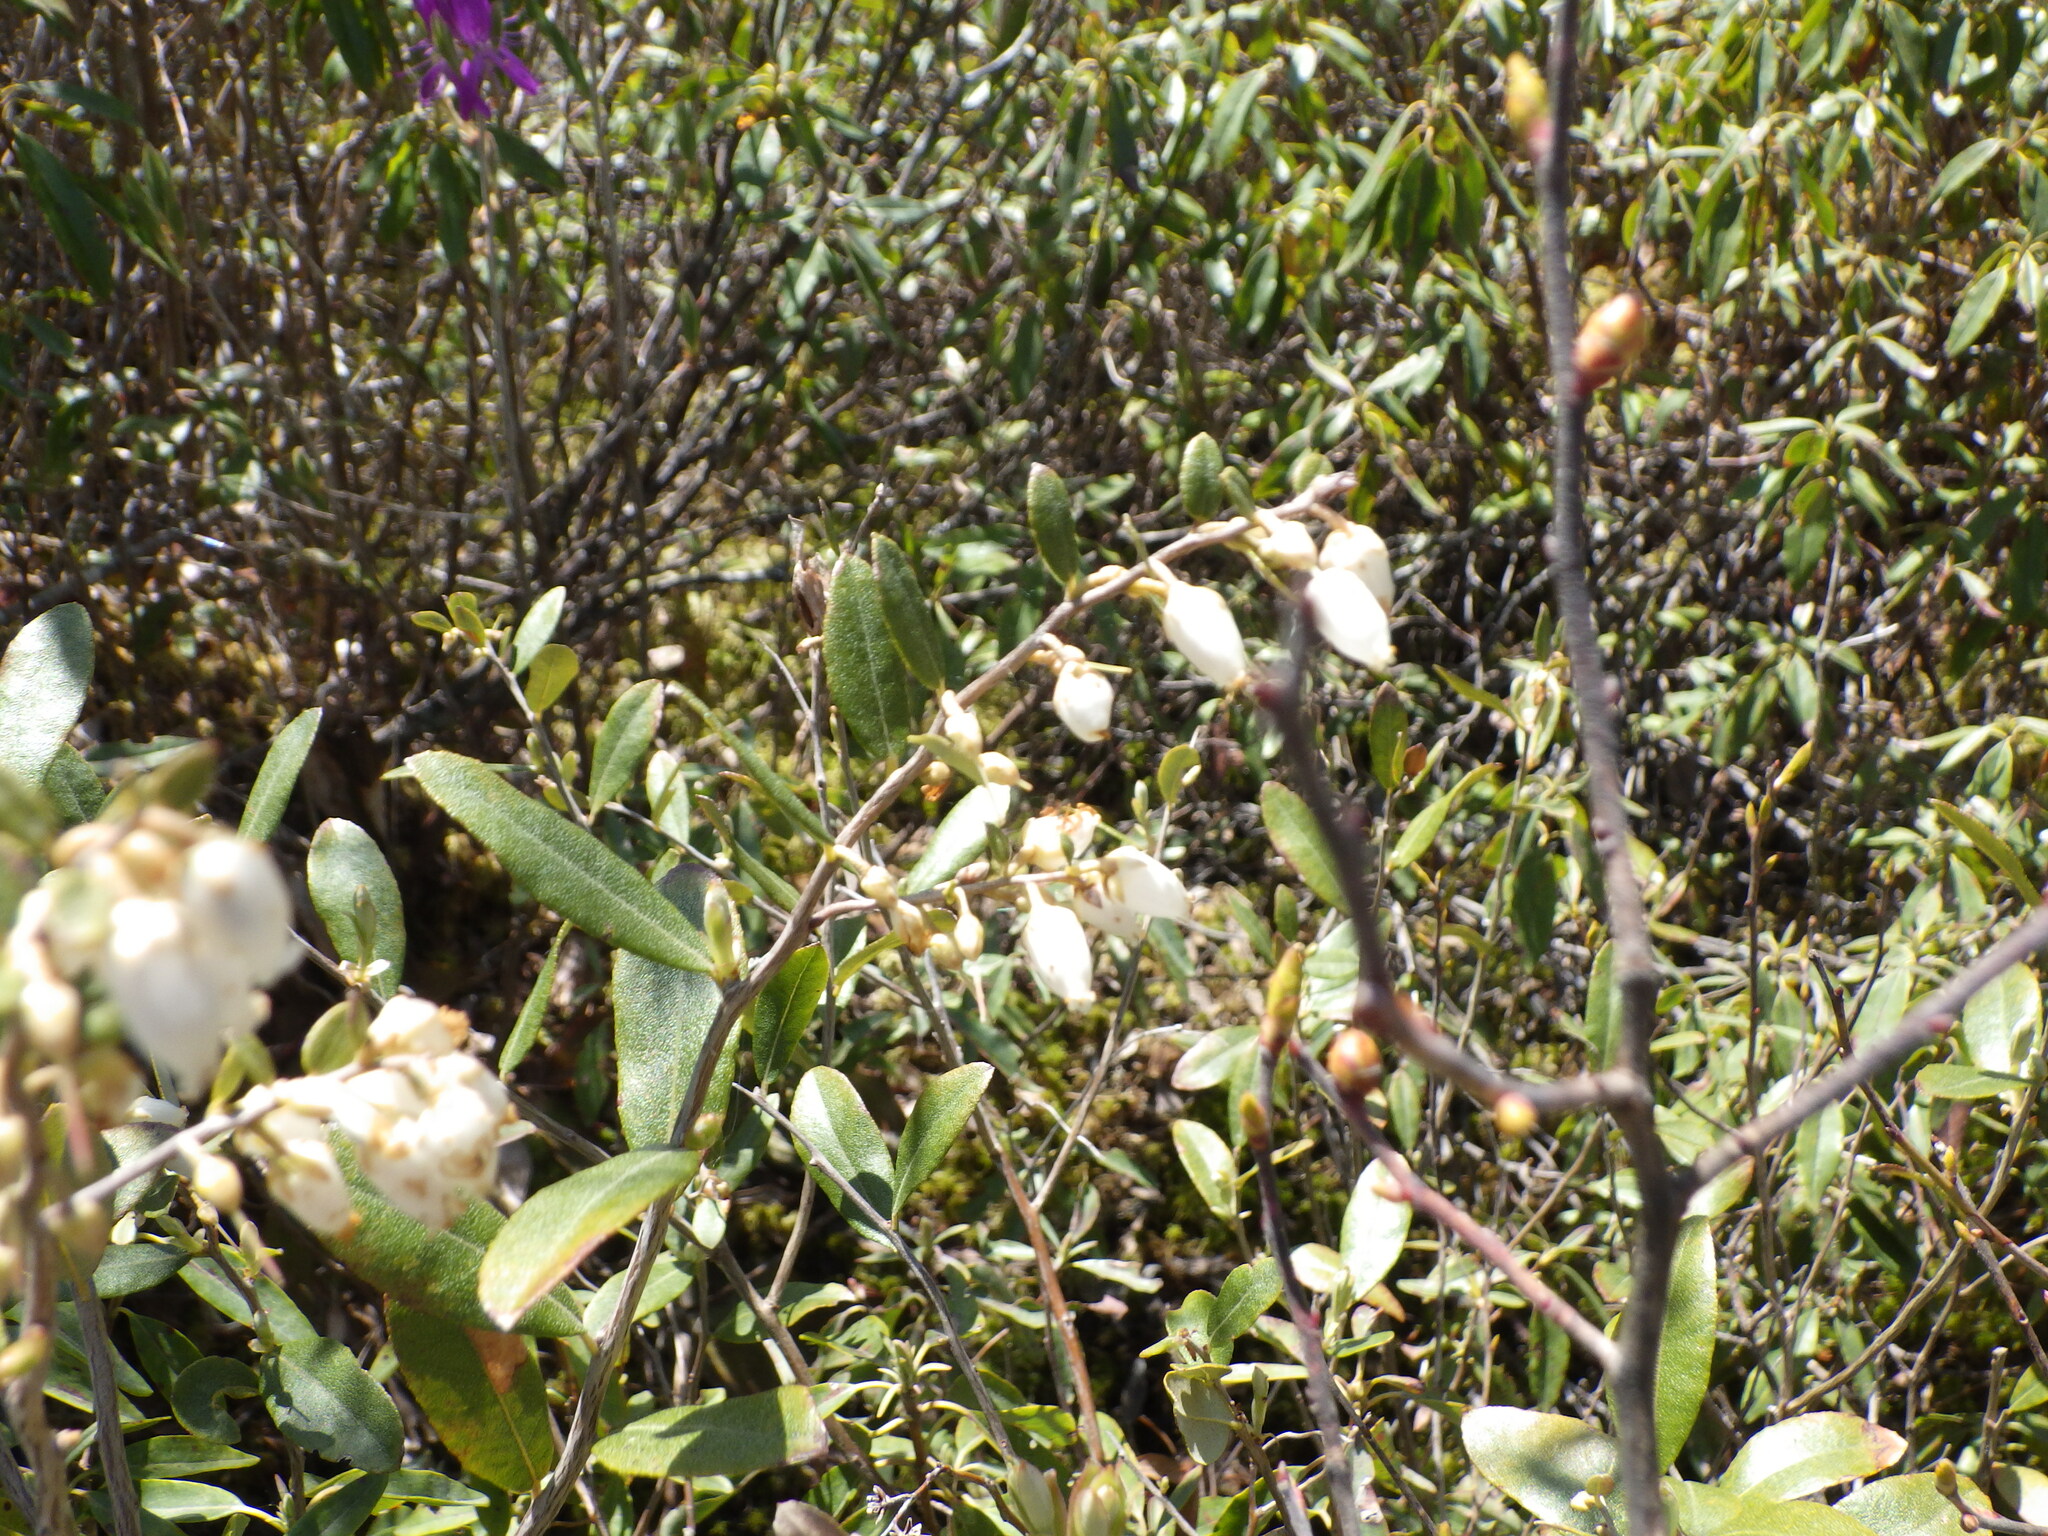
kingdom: Plantae
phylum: Tracheophyta
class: Magnoliopsida
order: Ericales
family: Ericaceae
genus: Chamaedaphne
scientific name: Chamaedaphne calyculata
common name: Leatherleaf
